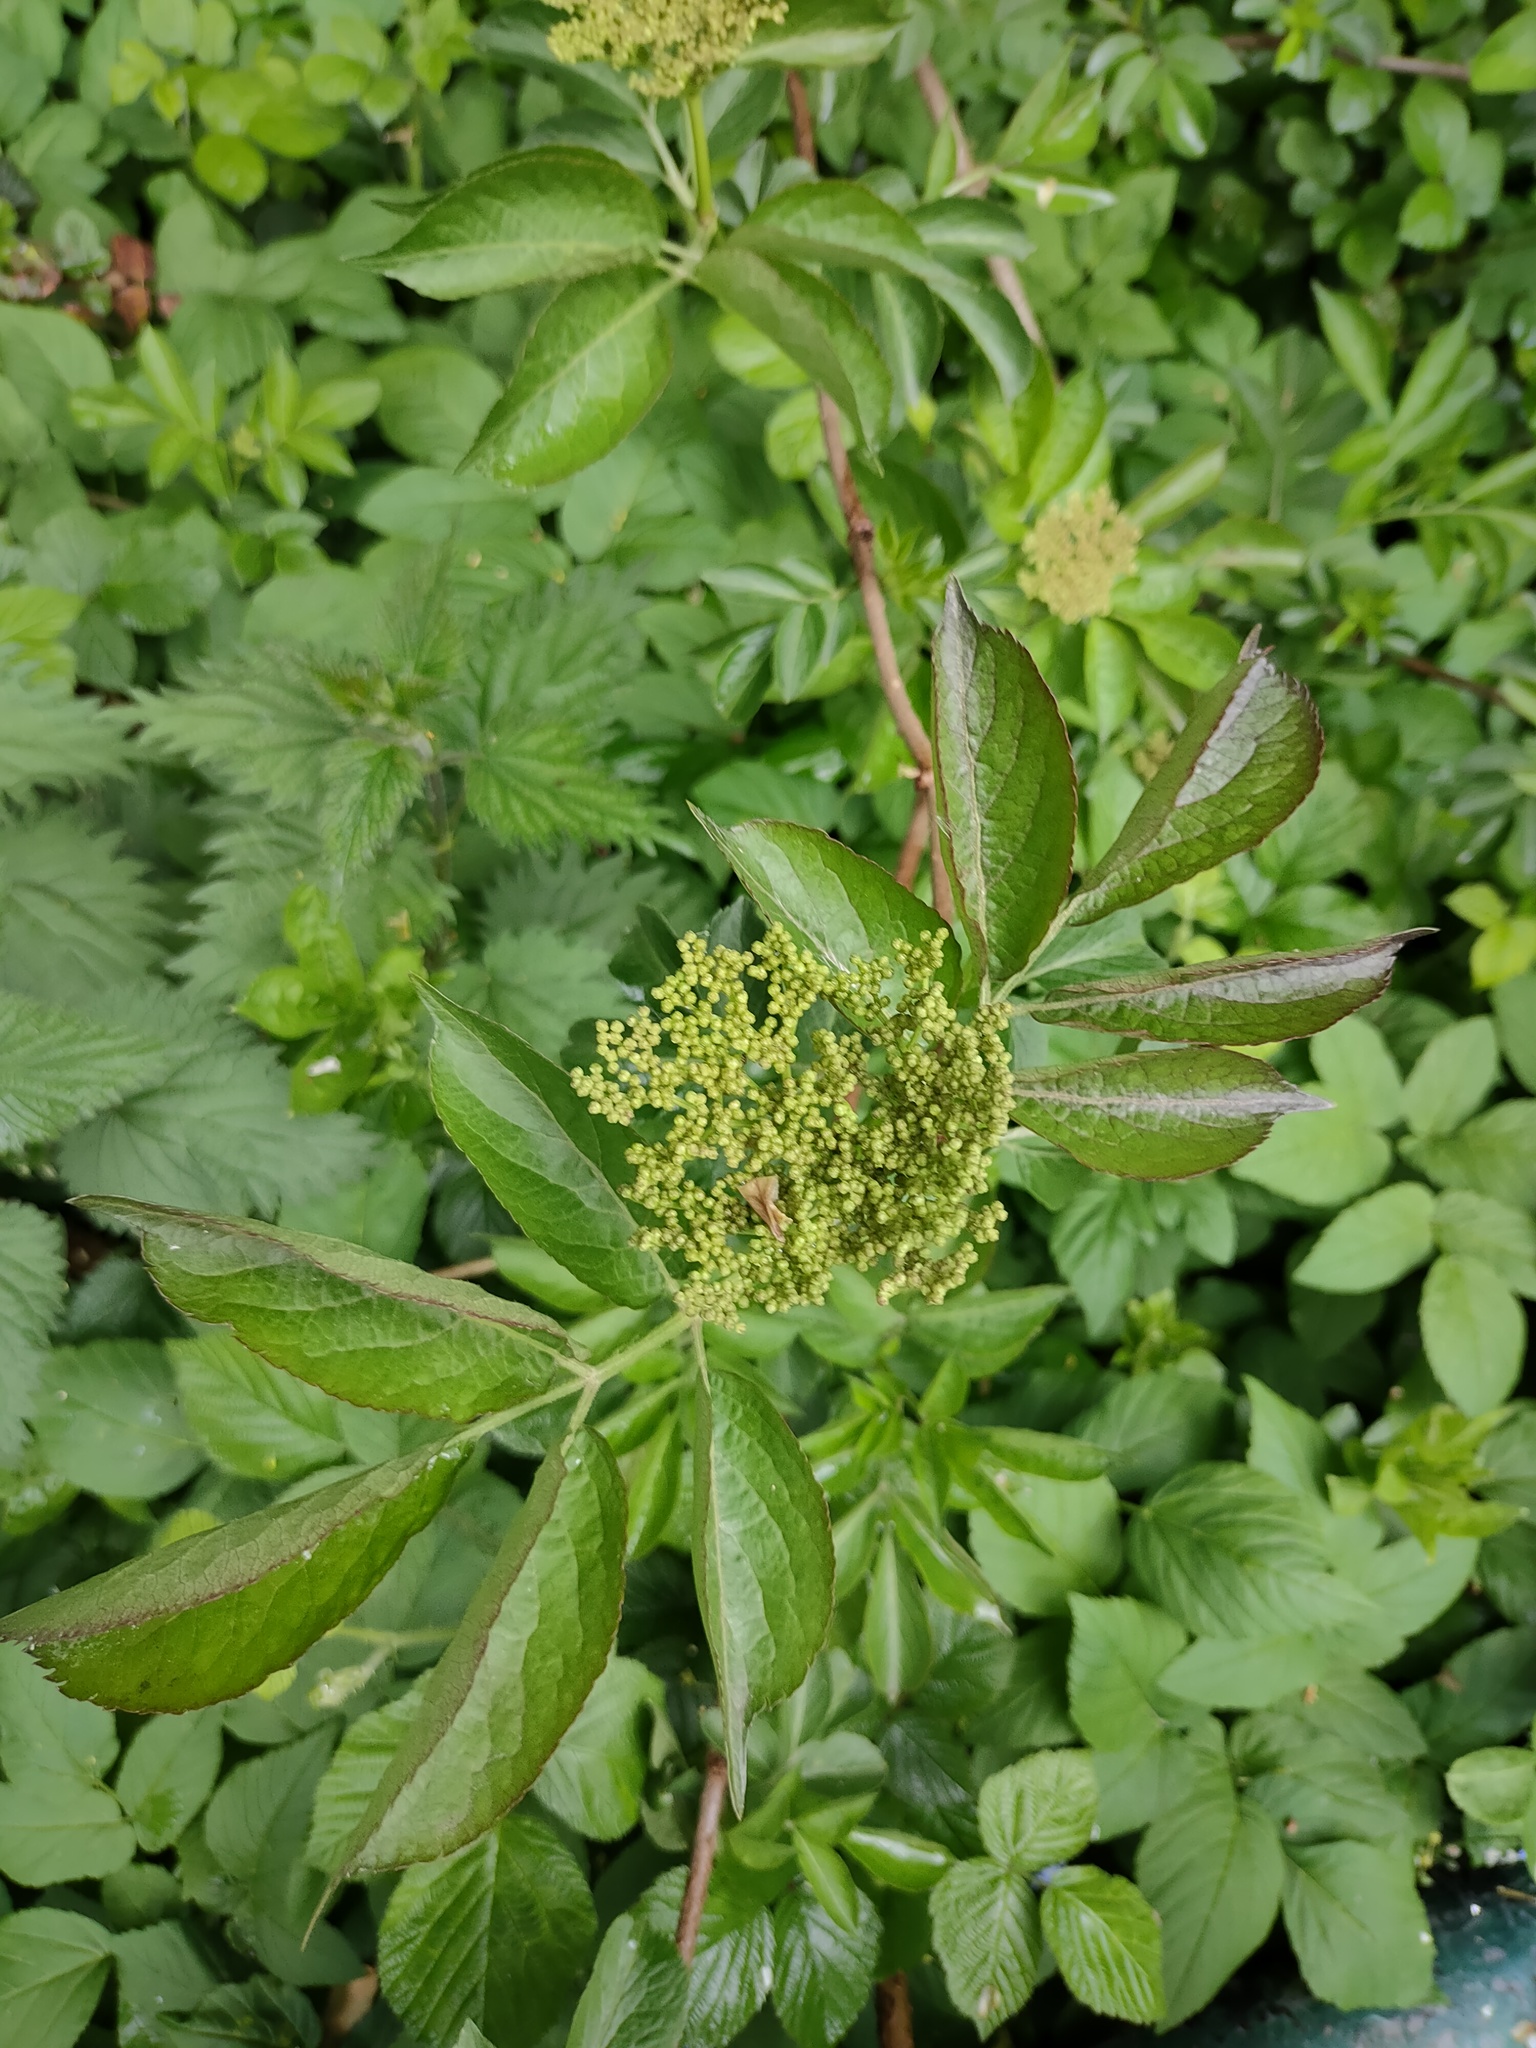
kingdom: Plantae
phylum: Tracheophyta
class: Magnoliopsida
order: Dipsacales
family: Viburnaceae
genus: Sambucus
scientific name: Sambucus nigra
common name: Elder
